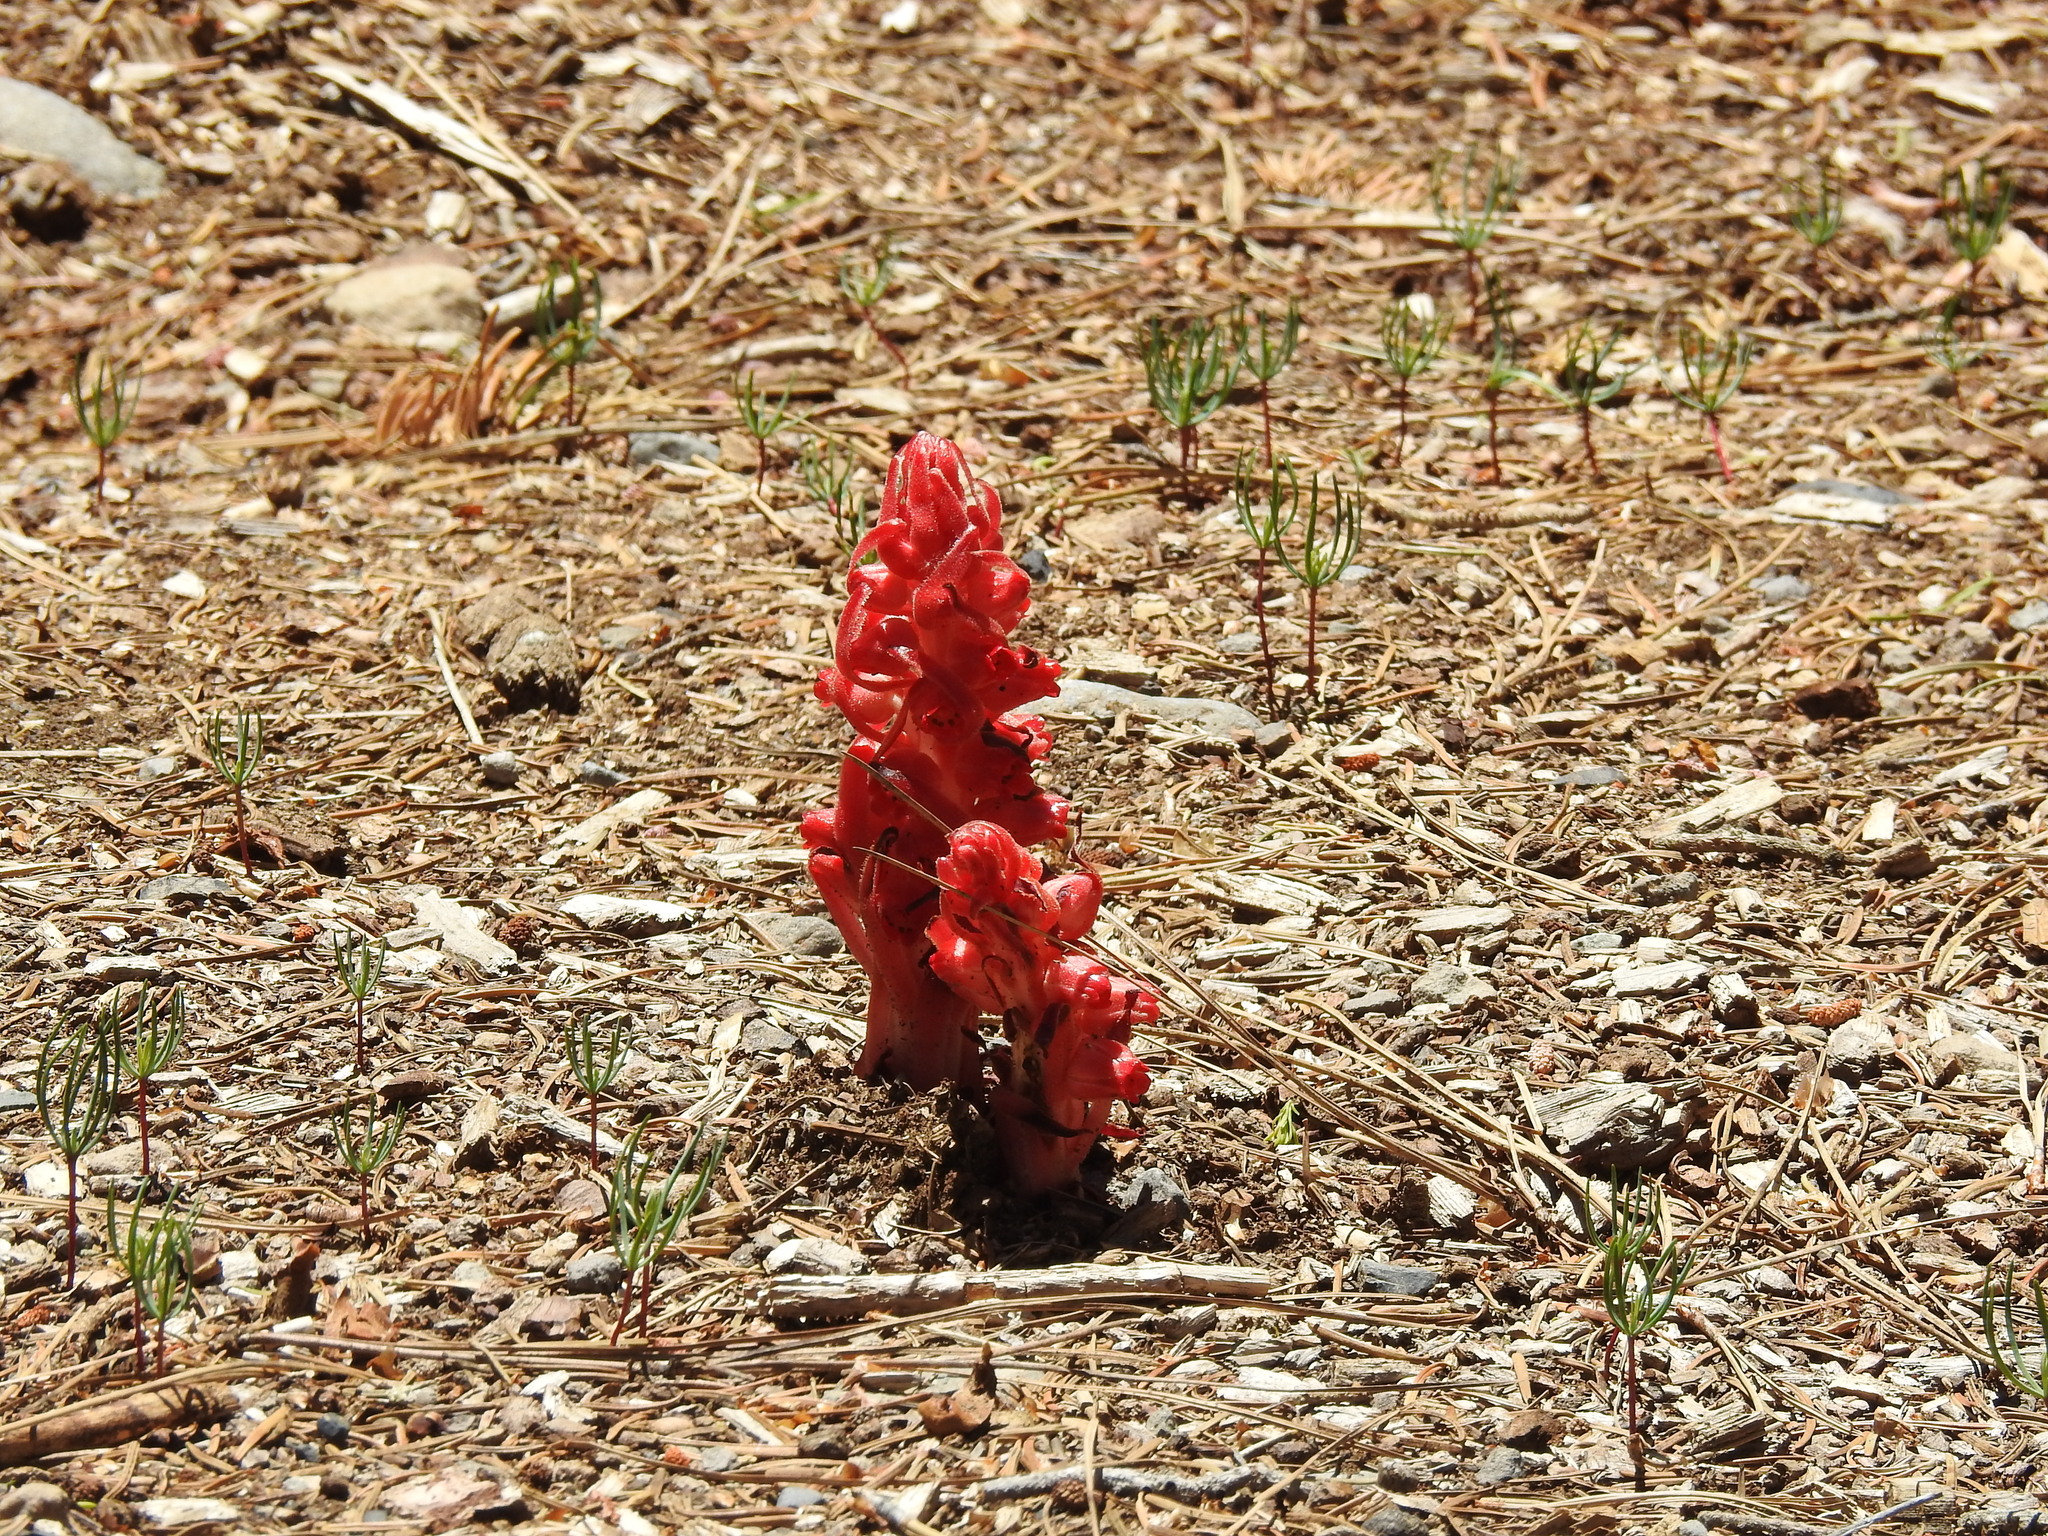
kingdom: Plantae
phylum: Tracheophyta
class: Magnoliopsida
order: Ericales
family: Ericaceae
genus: Sarcodes
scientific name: Sarcodes sanguinea
